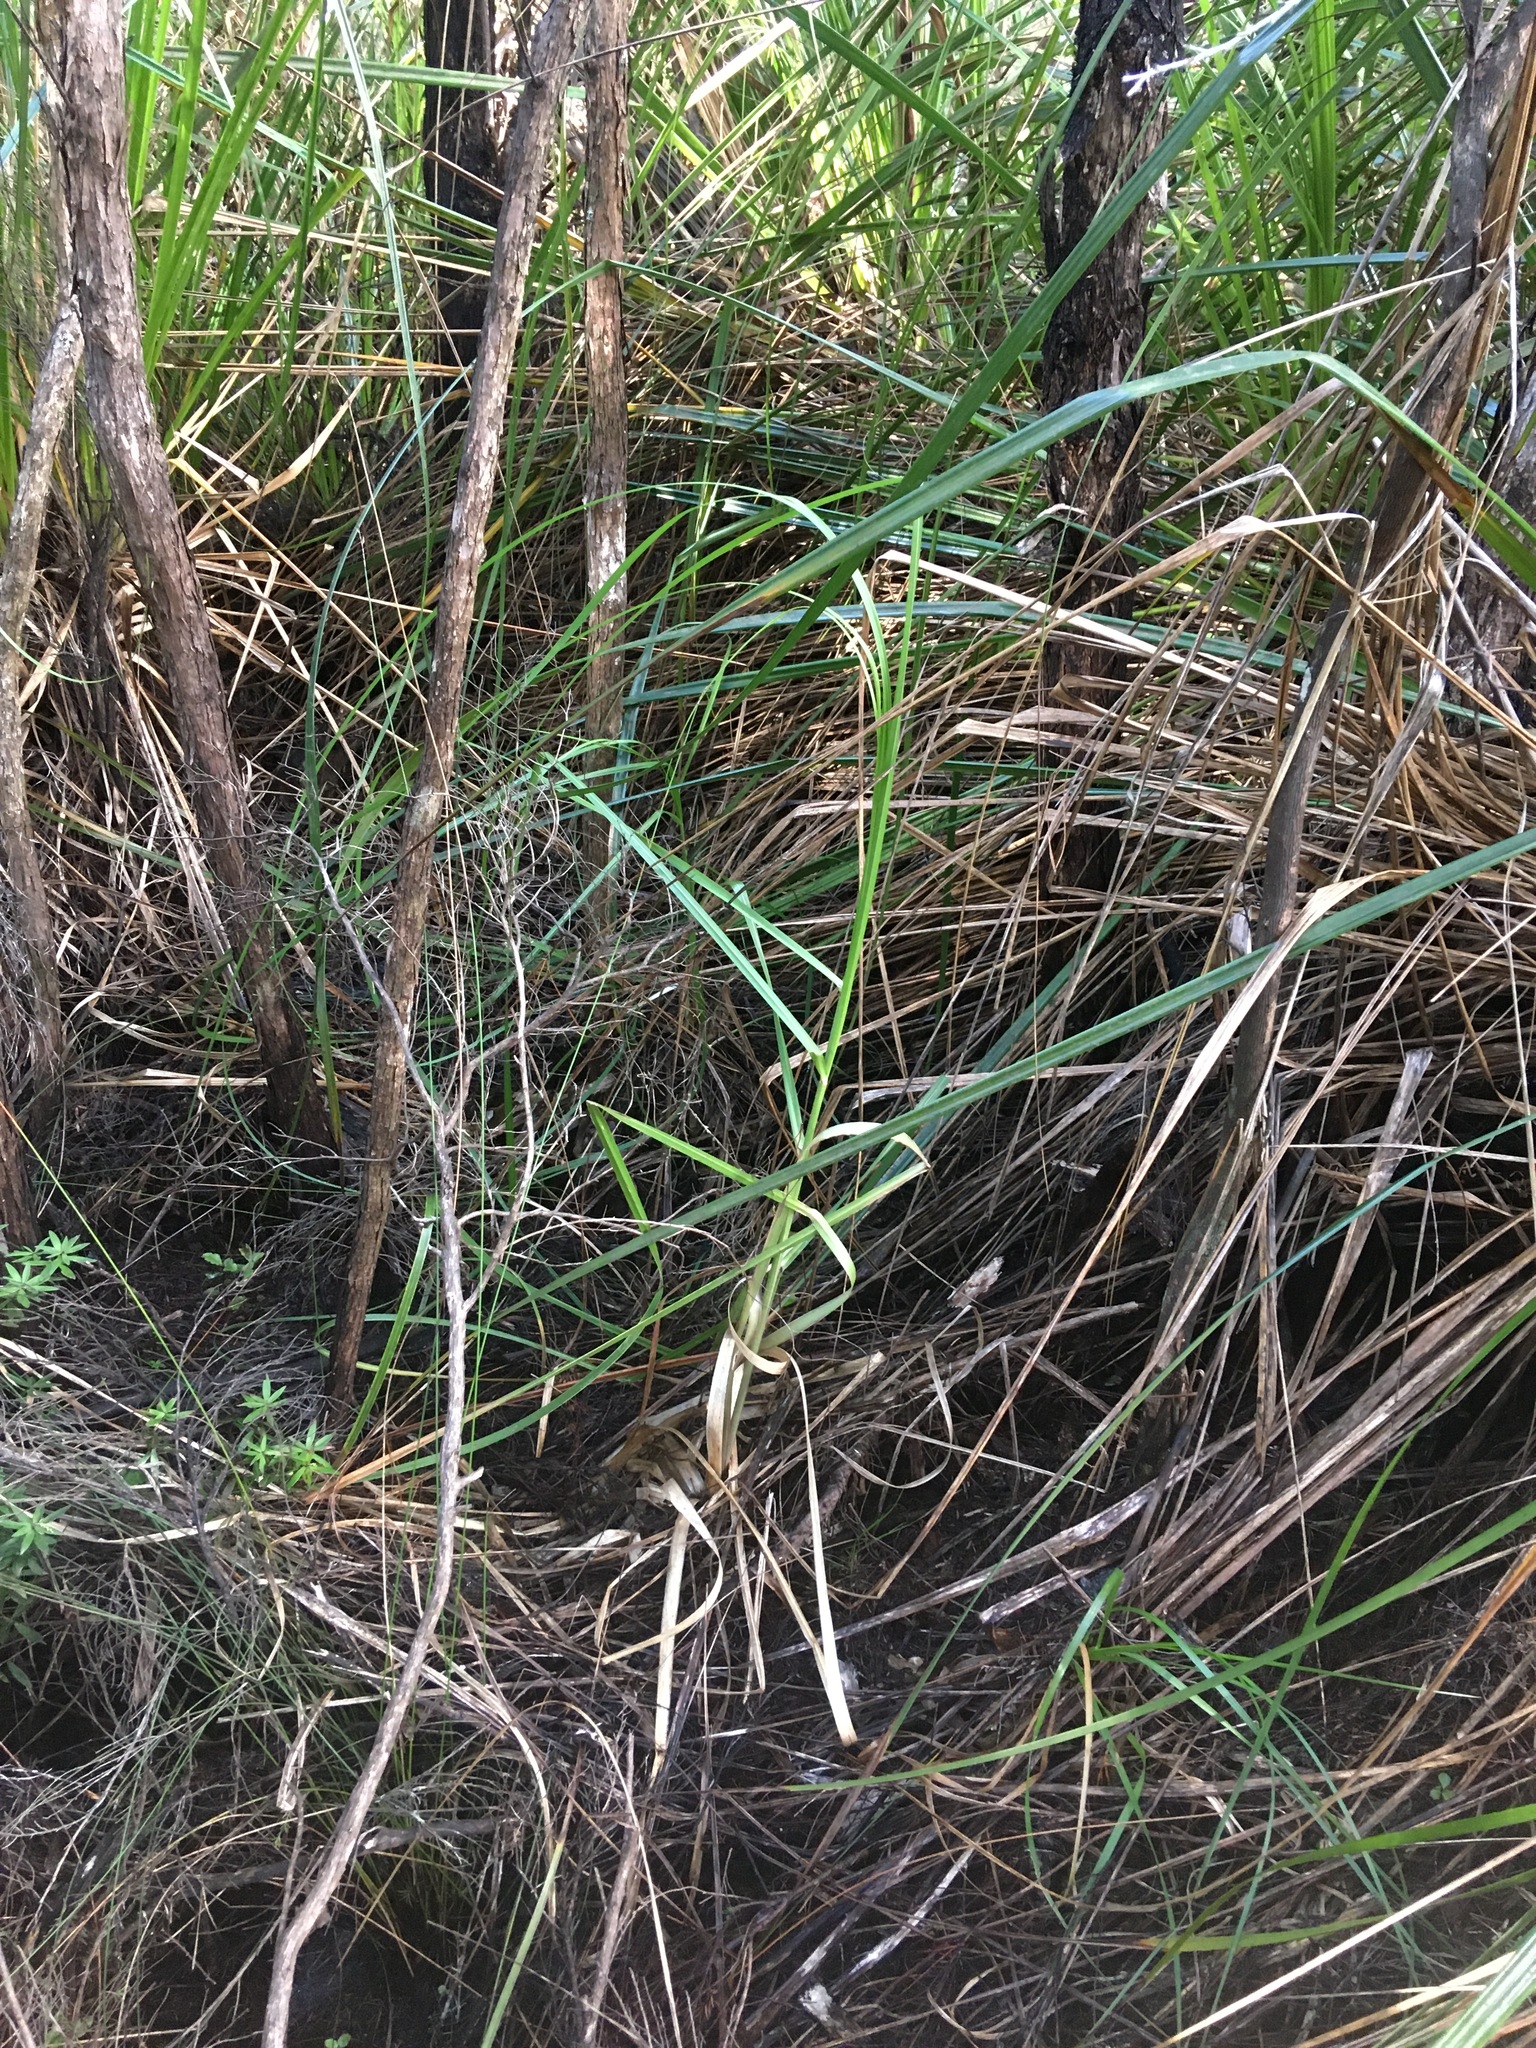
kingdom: Plantae
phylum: Tracheophyta
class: Liliopsida
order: Poales
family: Poaceae
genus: Cortaderia
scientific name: Cortaderia selloana
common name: Uruguayan pampas grass
